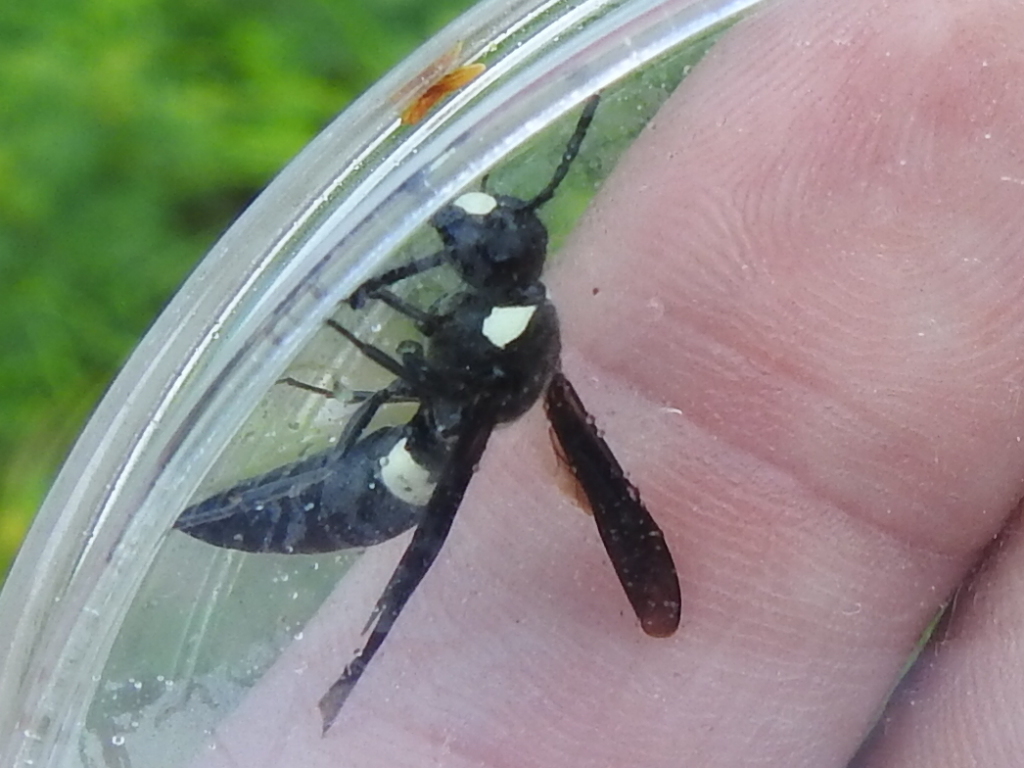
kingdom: Animalia
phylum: Arthropoda
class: Insecta
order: Hymenoptera
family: Eumenidae
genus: Monobia
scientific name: Monobia quadridens
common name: Four-toothed mason wasp
